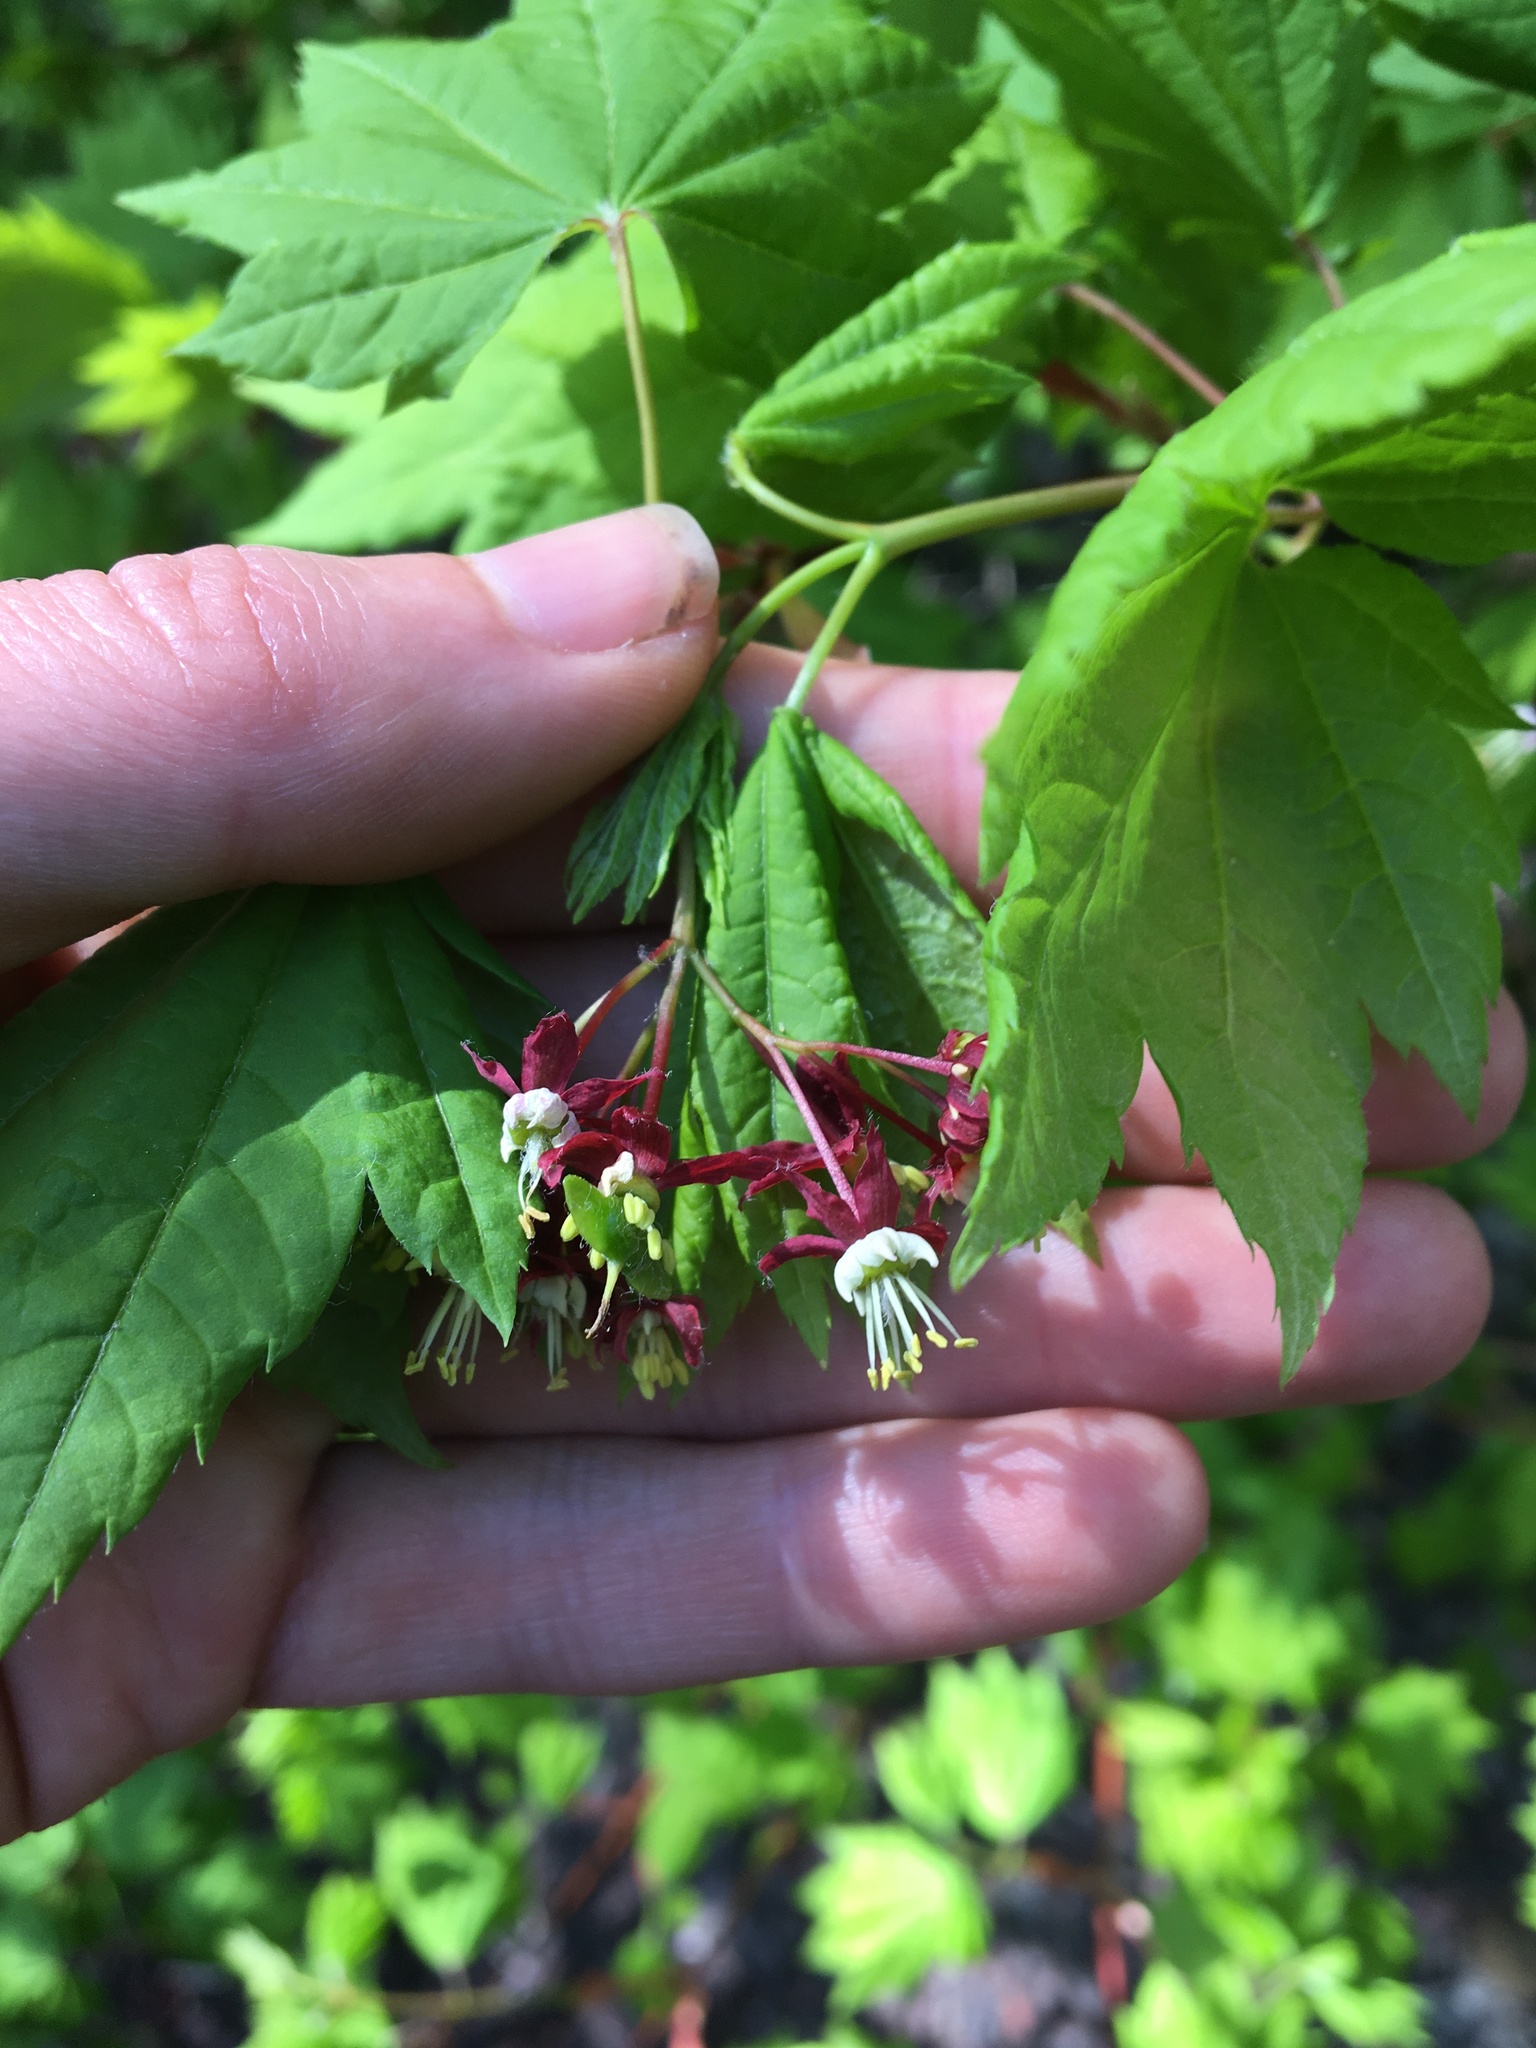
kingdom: Plantae
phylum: Tracheophyta
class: Magnoliopsida
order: Sapindales
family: Sapindaceae
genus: Acer
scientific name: Acer circinatum
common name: Vine maple
